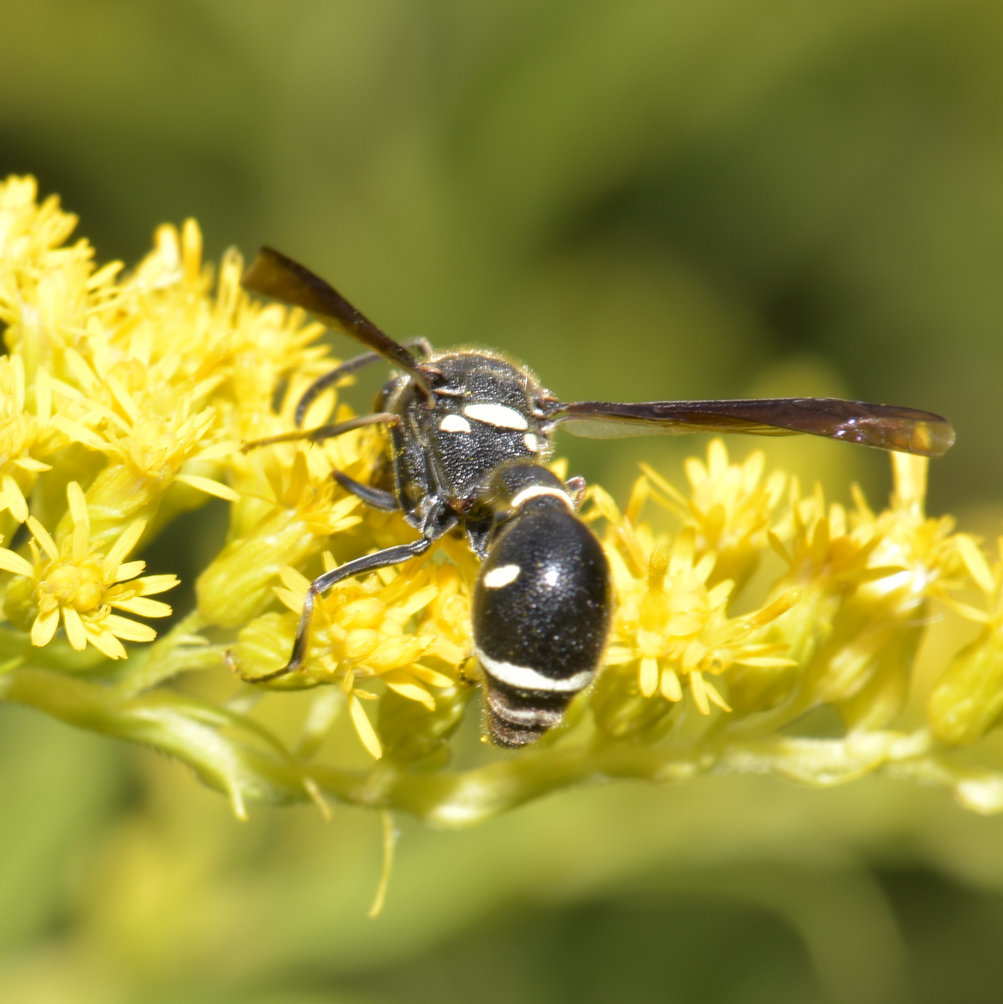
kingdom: Animalia
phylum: Arthropoda
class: Insecta
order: Hymenoptera
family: Vespidae
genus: Eumenes
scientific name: Eumenes fraternus
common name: Fraternal potter wasp
